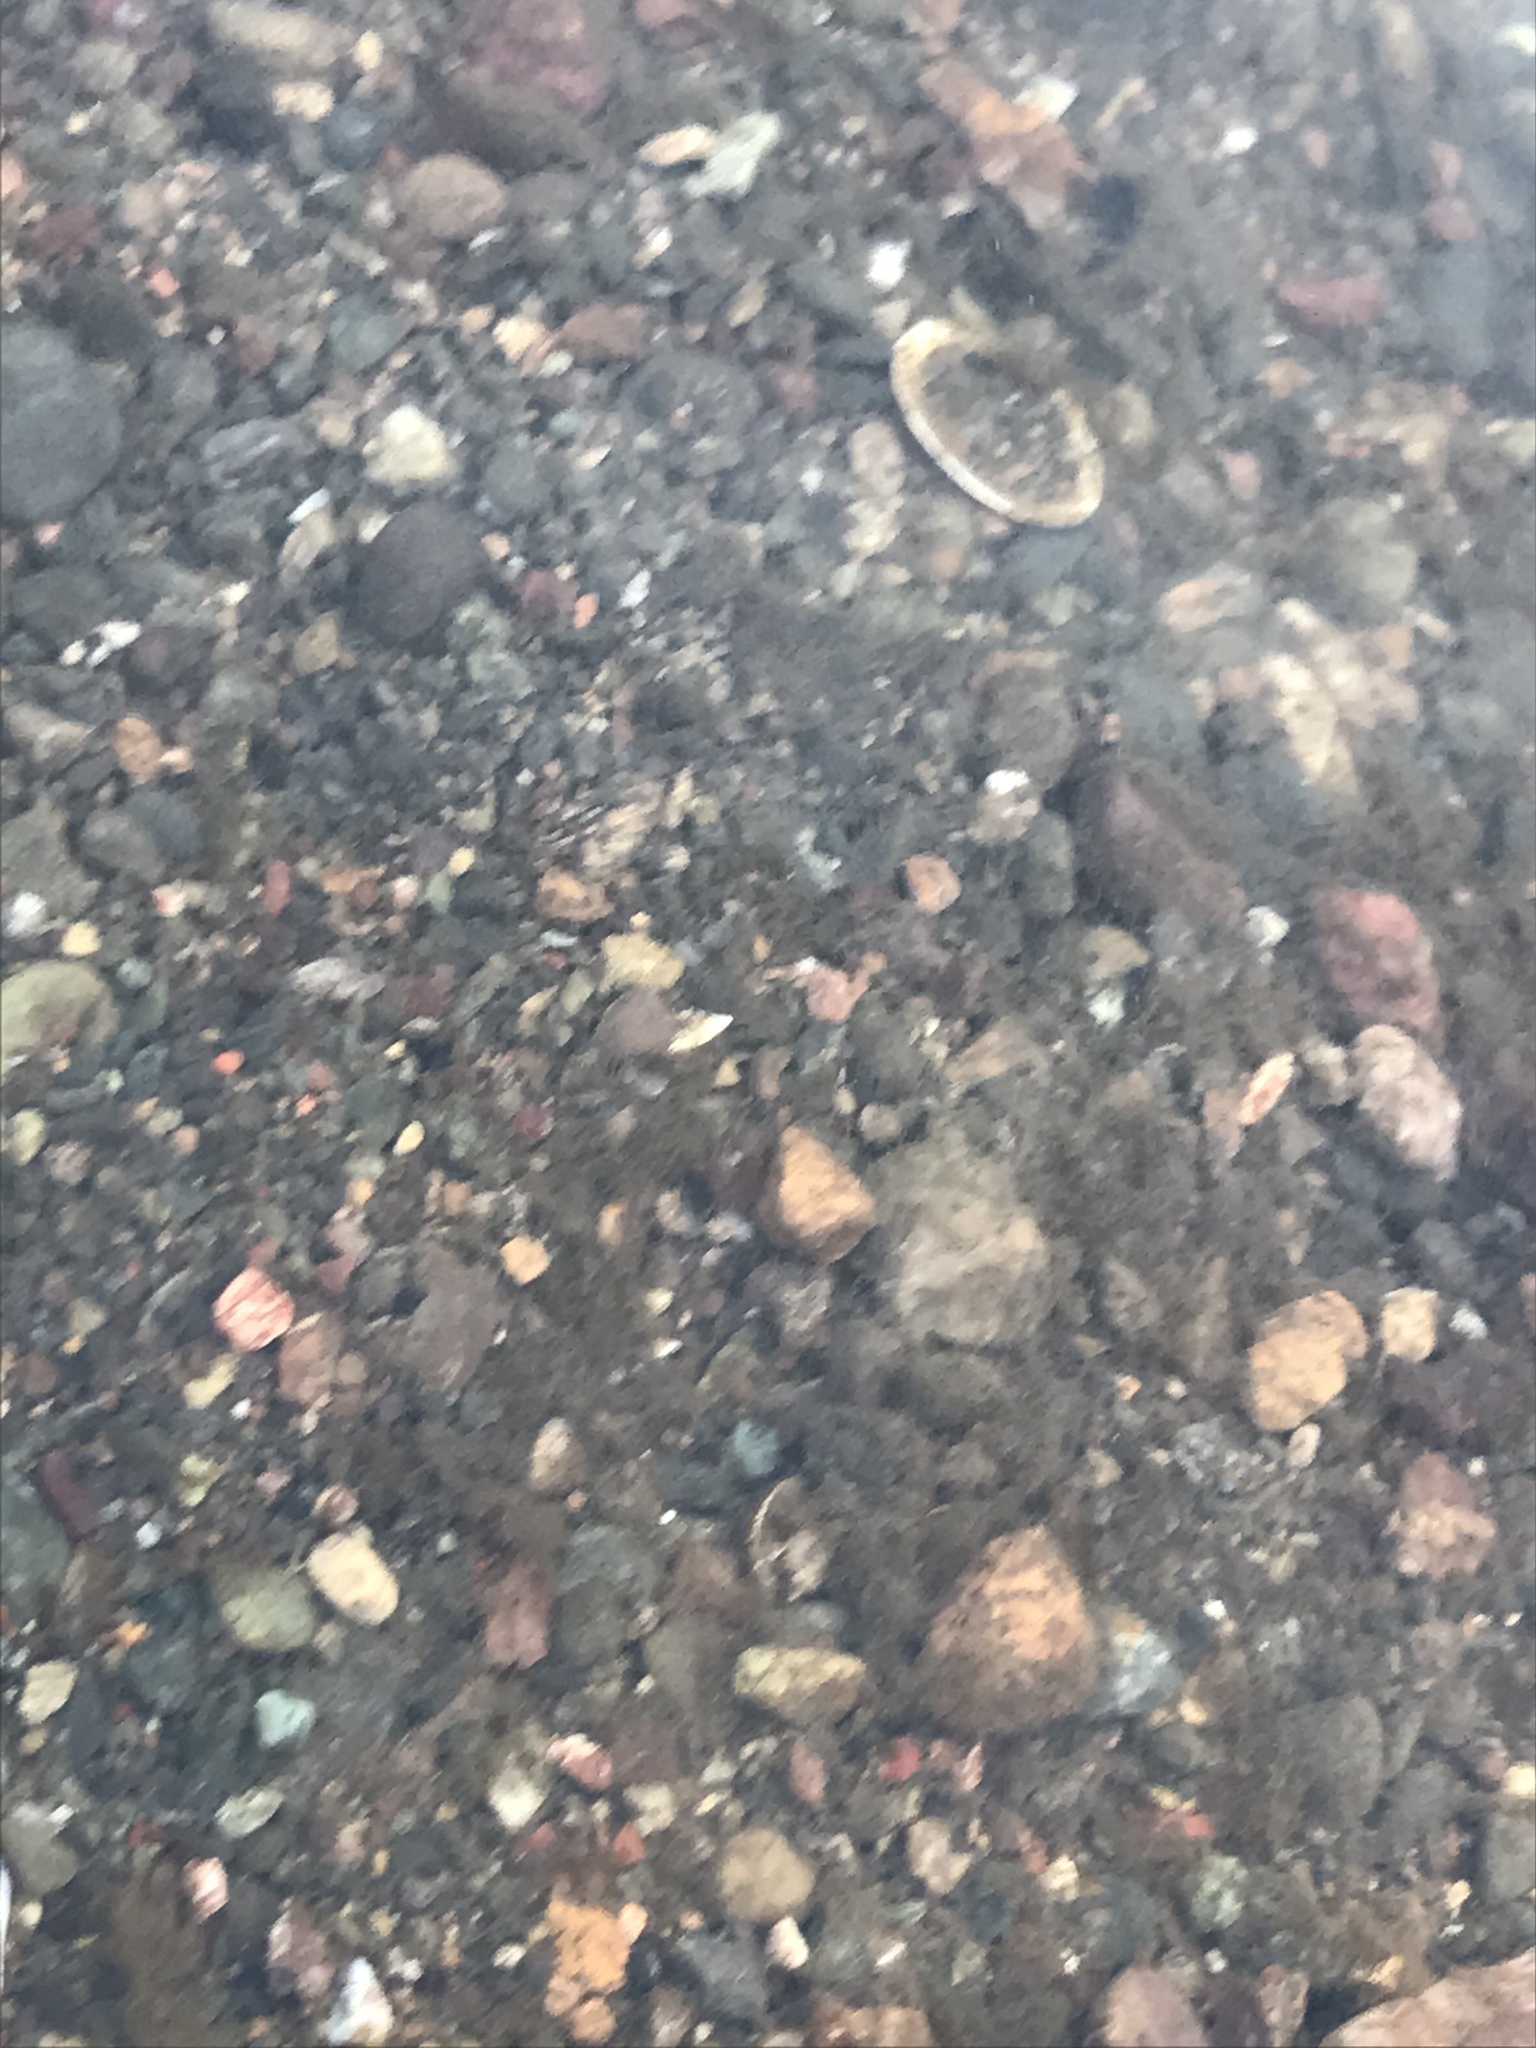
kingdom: Animalia
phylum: Mollusca
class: Bivalvia
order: Venerida
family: Cyrenidae
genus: Corbicula
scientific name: Corbicula fluminea
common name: Asian clam
